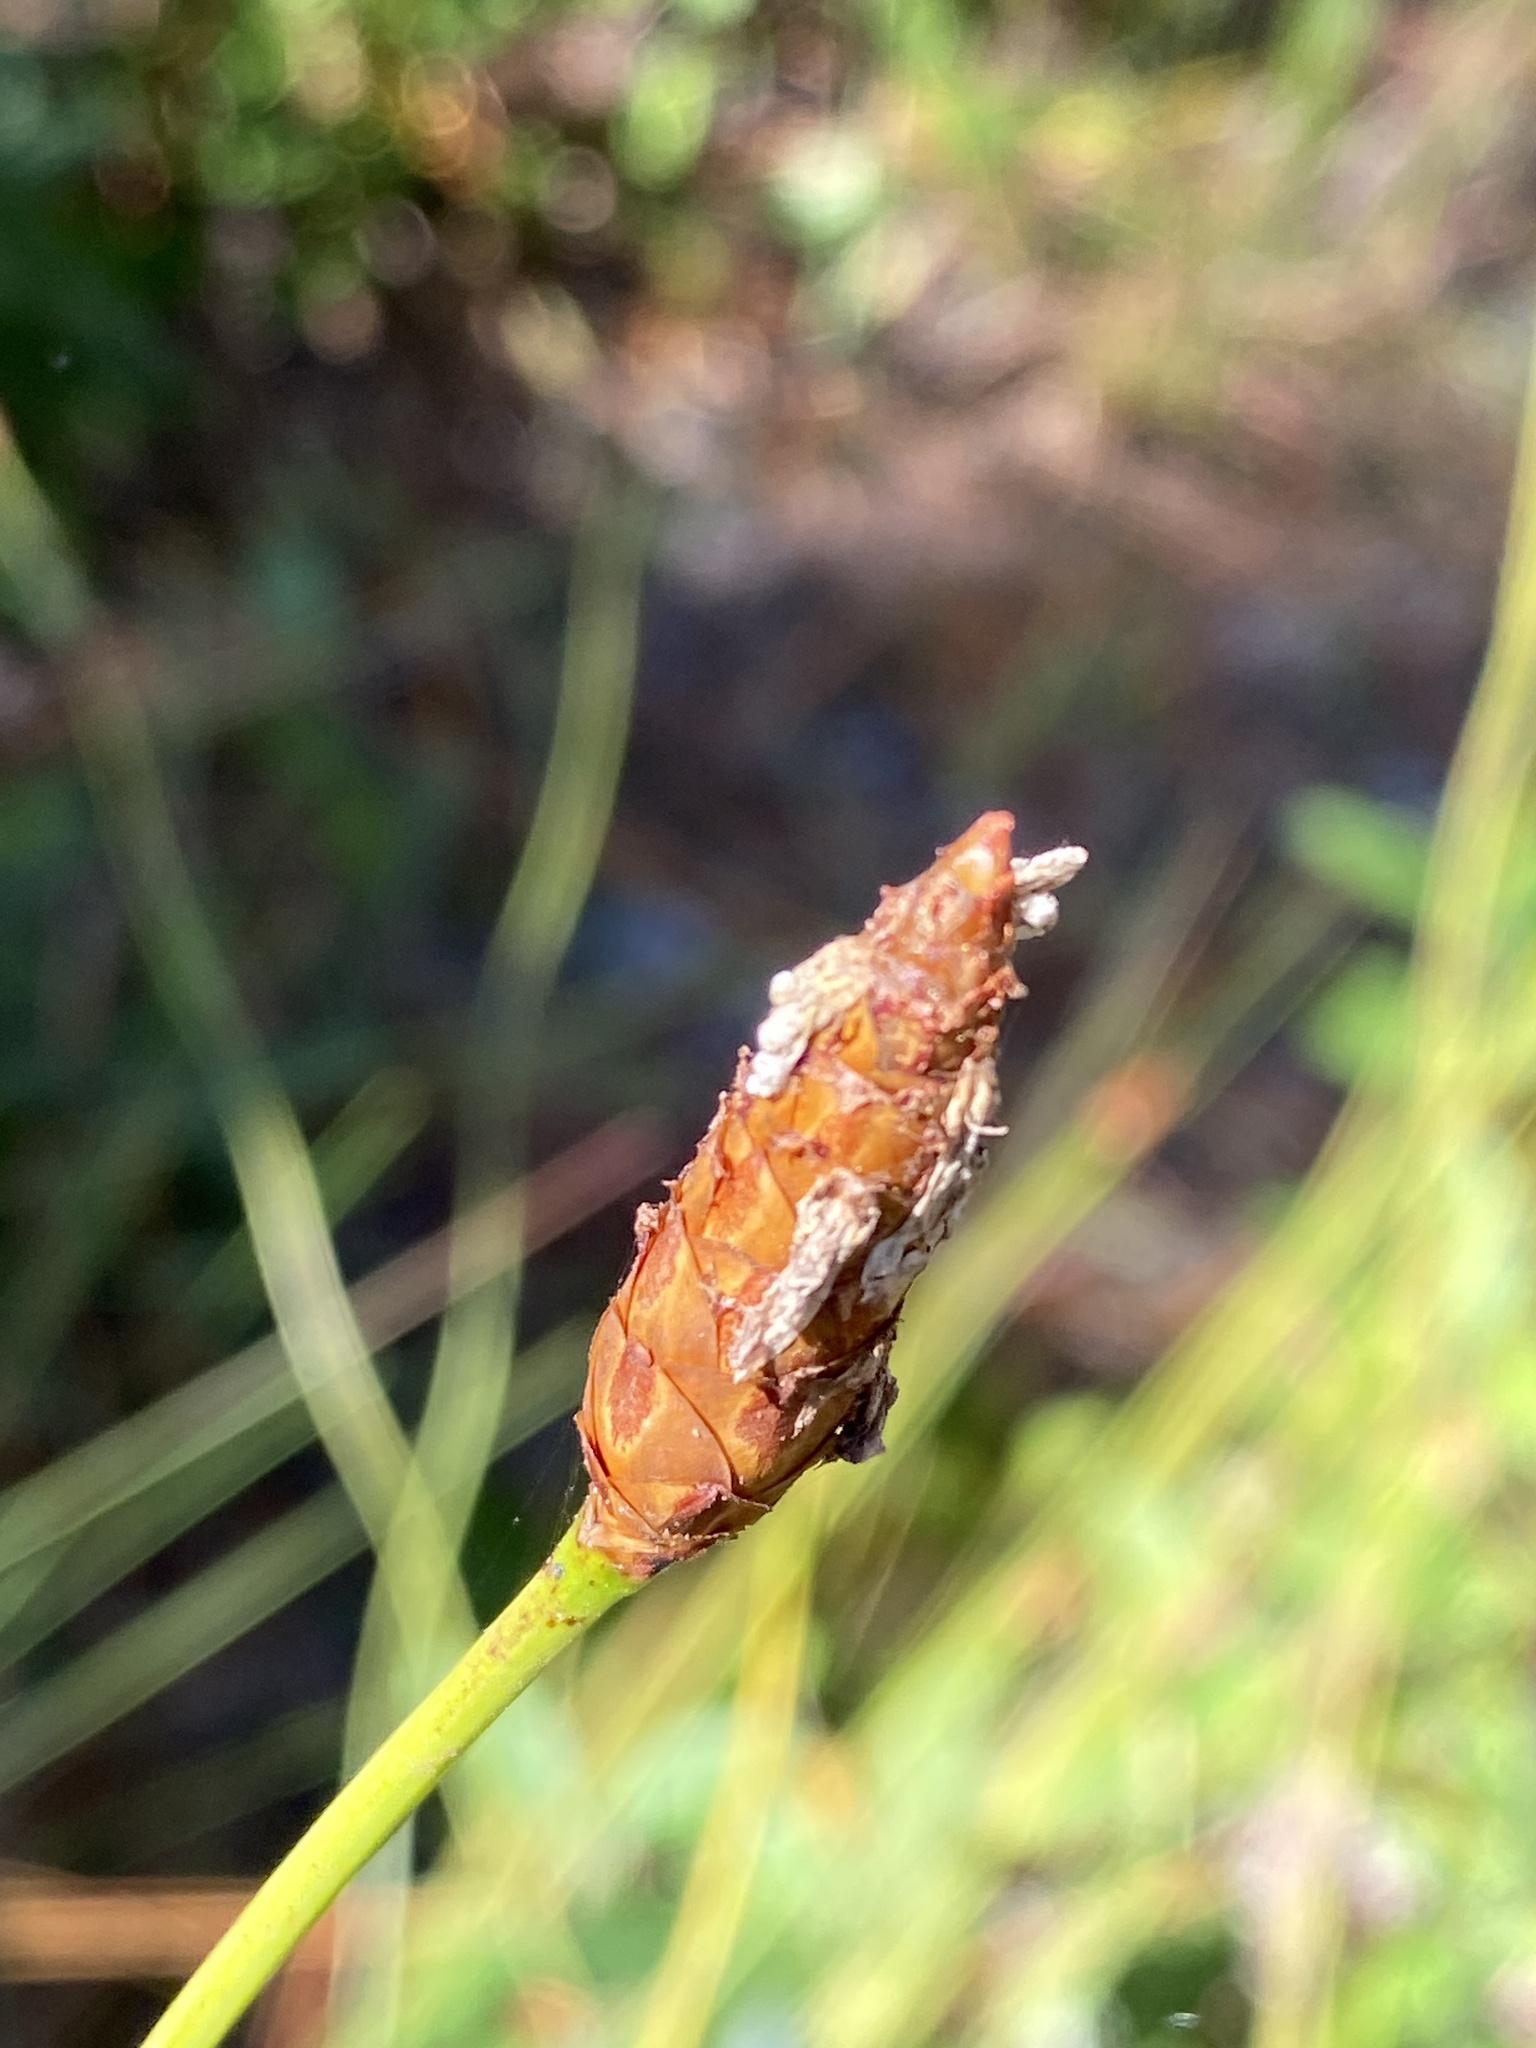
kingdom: Plantae
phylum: Tracheophyta
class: Liliopsida
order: Poales
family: Xyridaceae
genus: Xyris
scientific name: Xyris caroliniana
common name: Carolina yellow-eyed-grass
